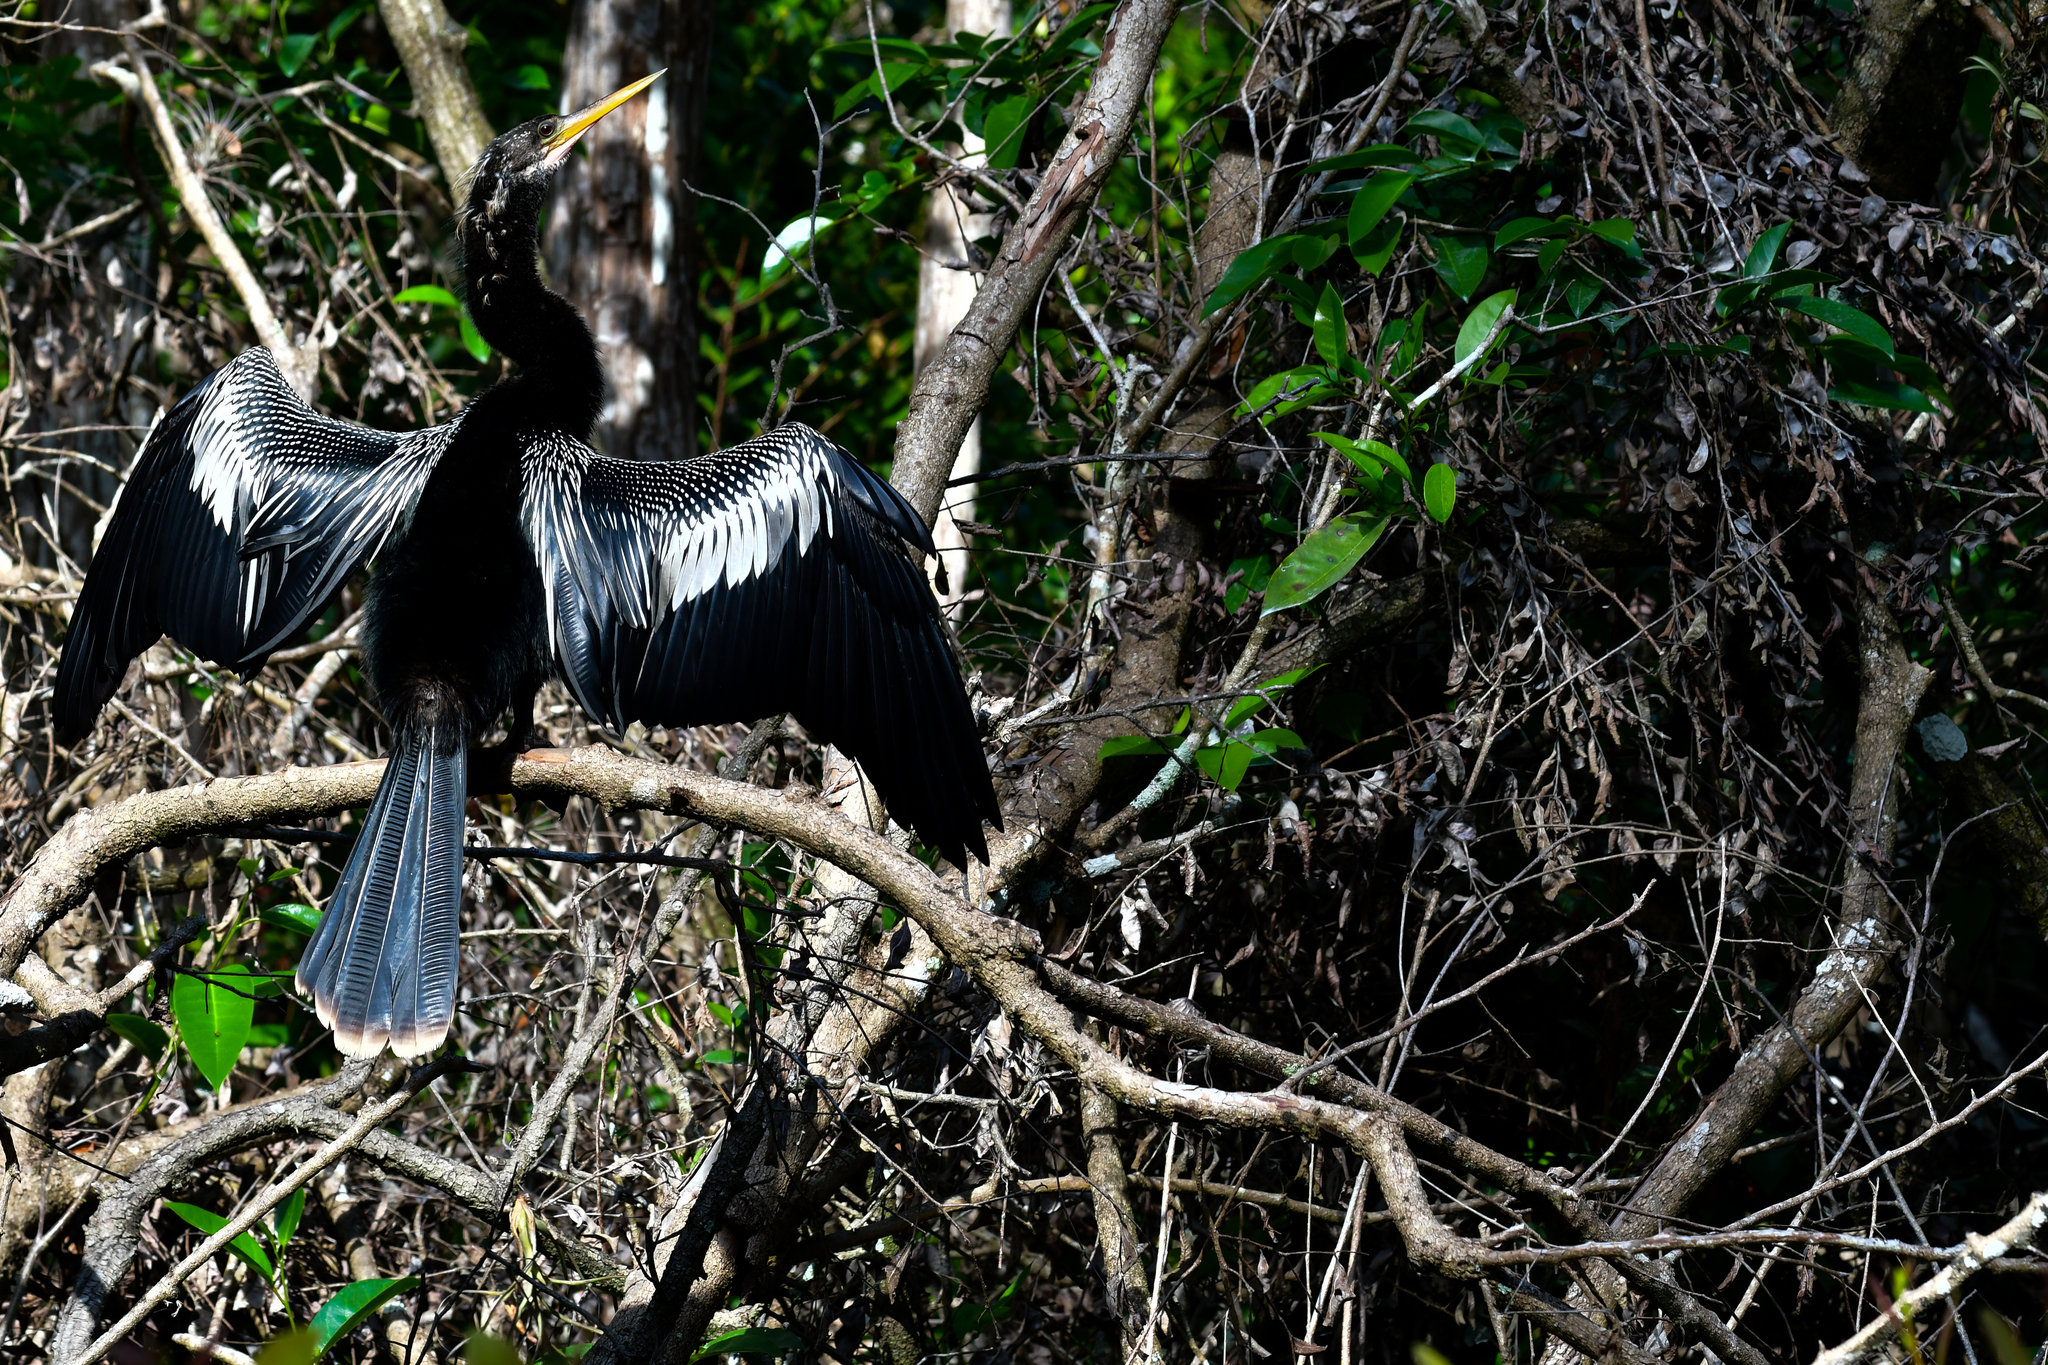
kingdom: Animalia
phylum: Chordata
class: Aves
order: Suliformes
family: Anhingidae
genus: Anhinga
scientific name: Anhinga anhinga
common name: Anhinga
